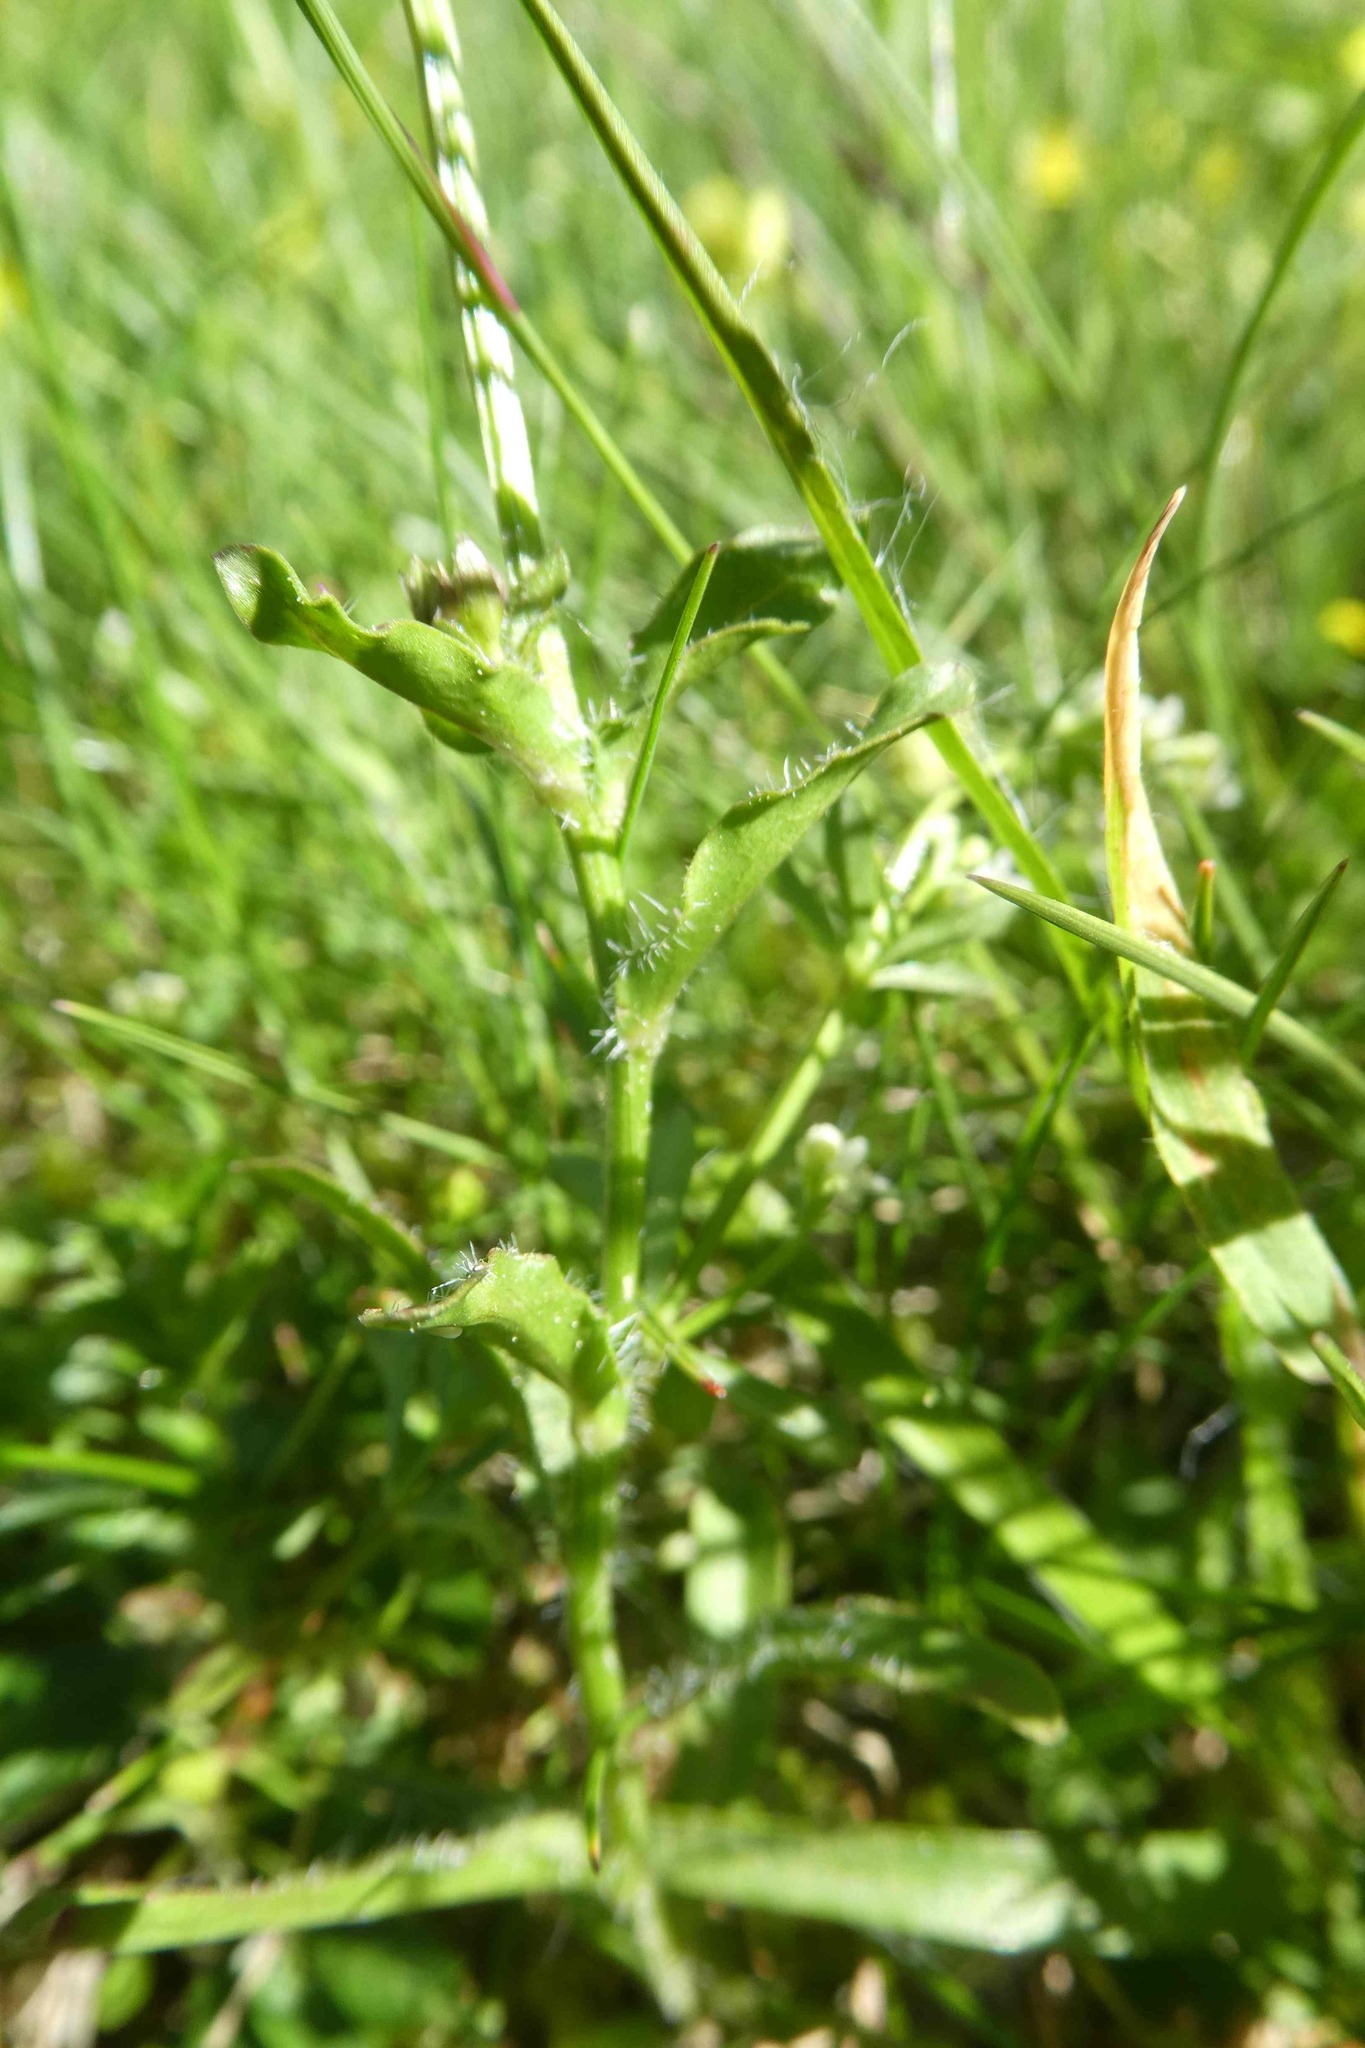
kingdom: Plantae
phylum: Tracheophyta
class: Magnoliopsida
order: Asterales
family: Campanulaceae
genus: Jasione
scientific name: Jasione montana
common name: Sheep's-bit
